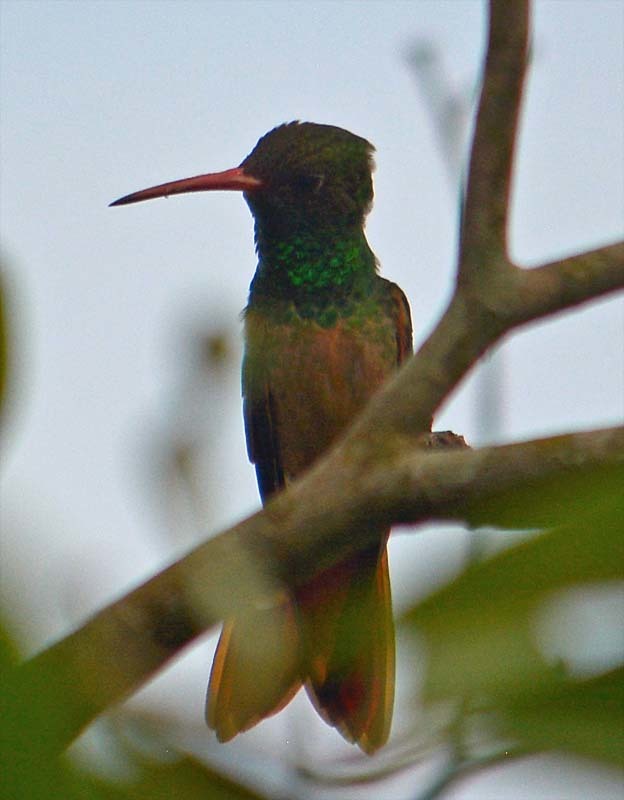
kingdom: Animalia
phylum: Chordata
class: Aves
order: Apodiformes
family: Trochilidae
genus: Amazilia
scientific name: Amazilia yucatanensis
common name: Buff-bellied hummingbird
